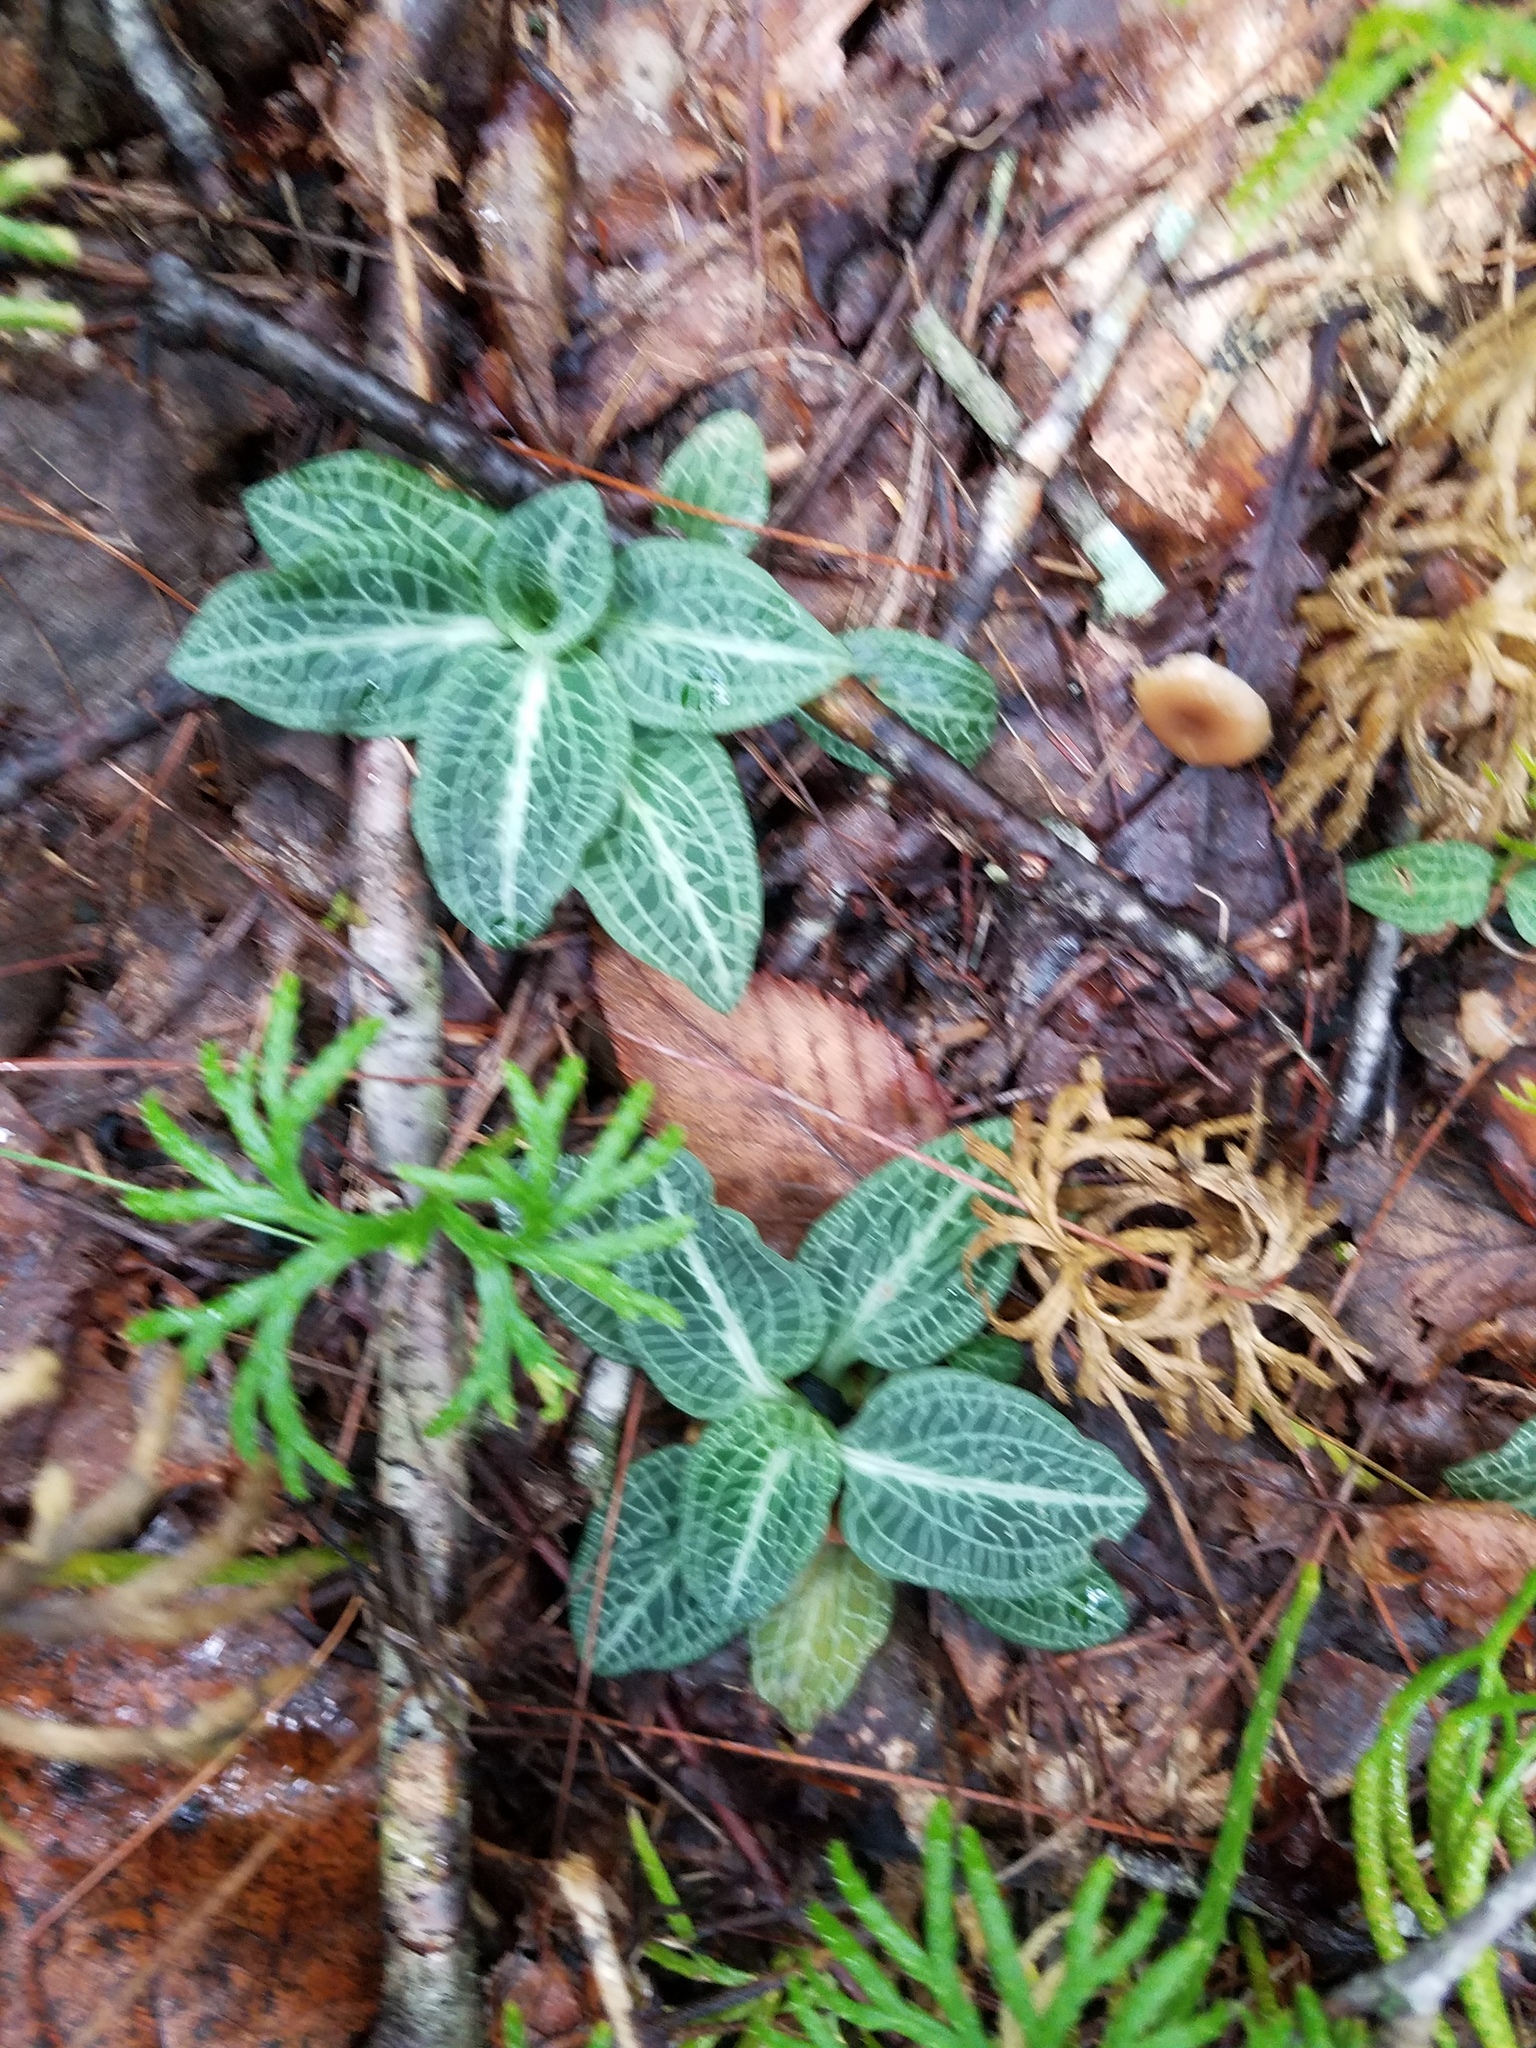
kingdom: Plantae
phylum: Tracheophyta
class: Liliopsida
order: Asparagales
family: Orchidaceae
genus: Goodyera
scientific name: Goodyera pubescens
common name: Downy rattlesnake-plantain
